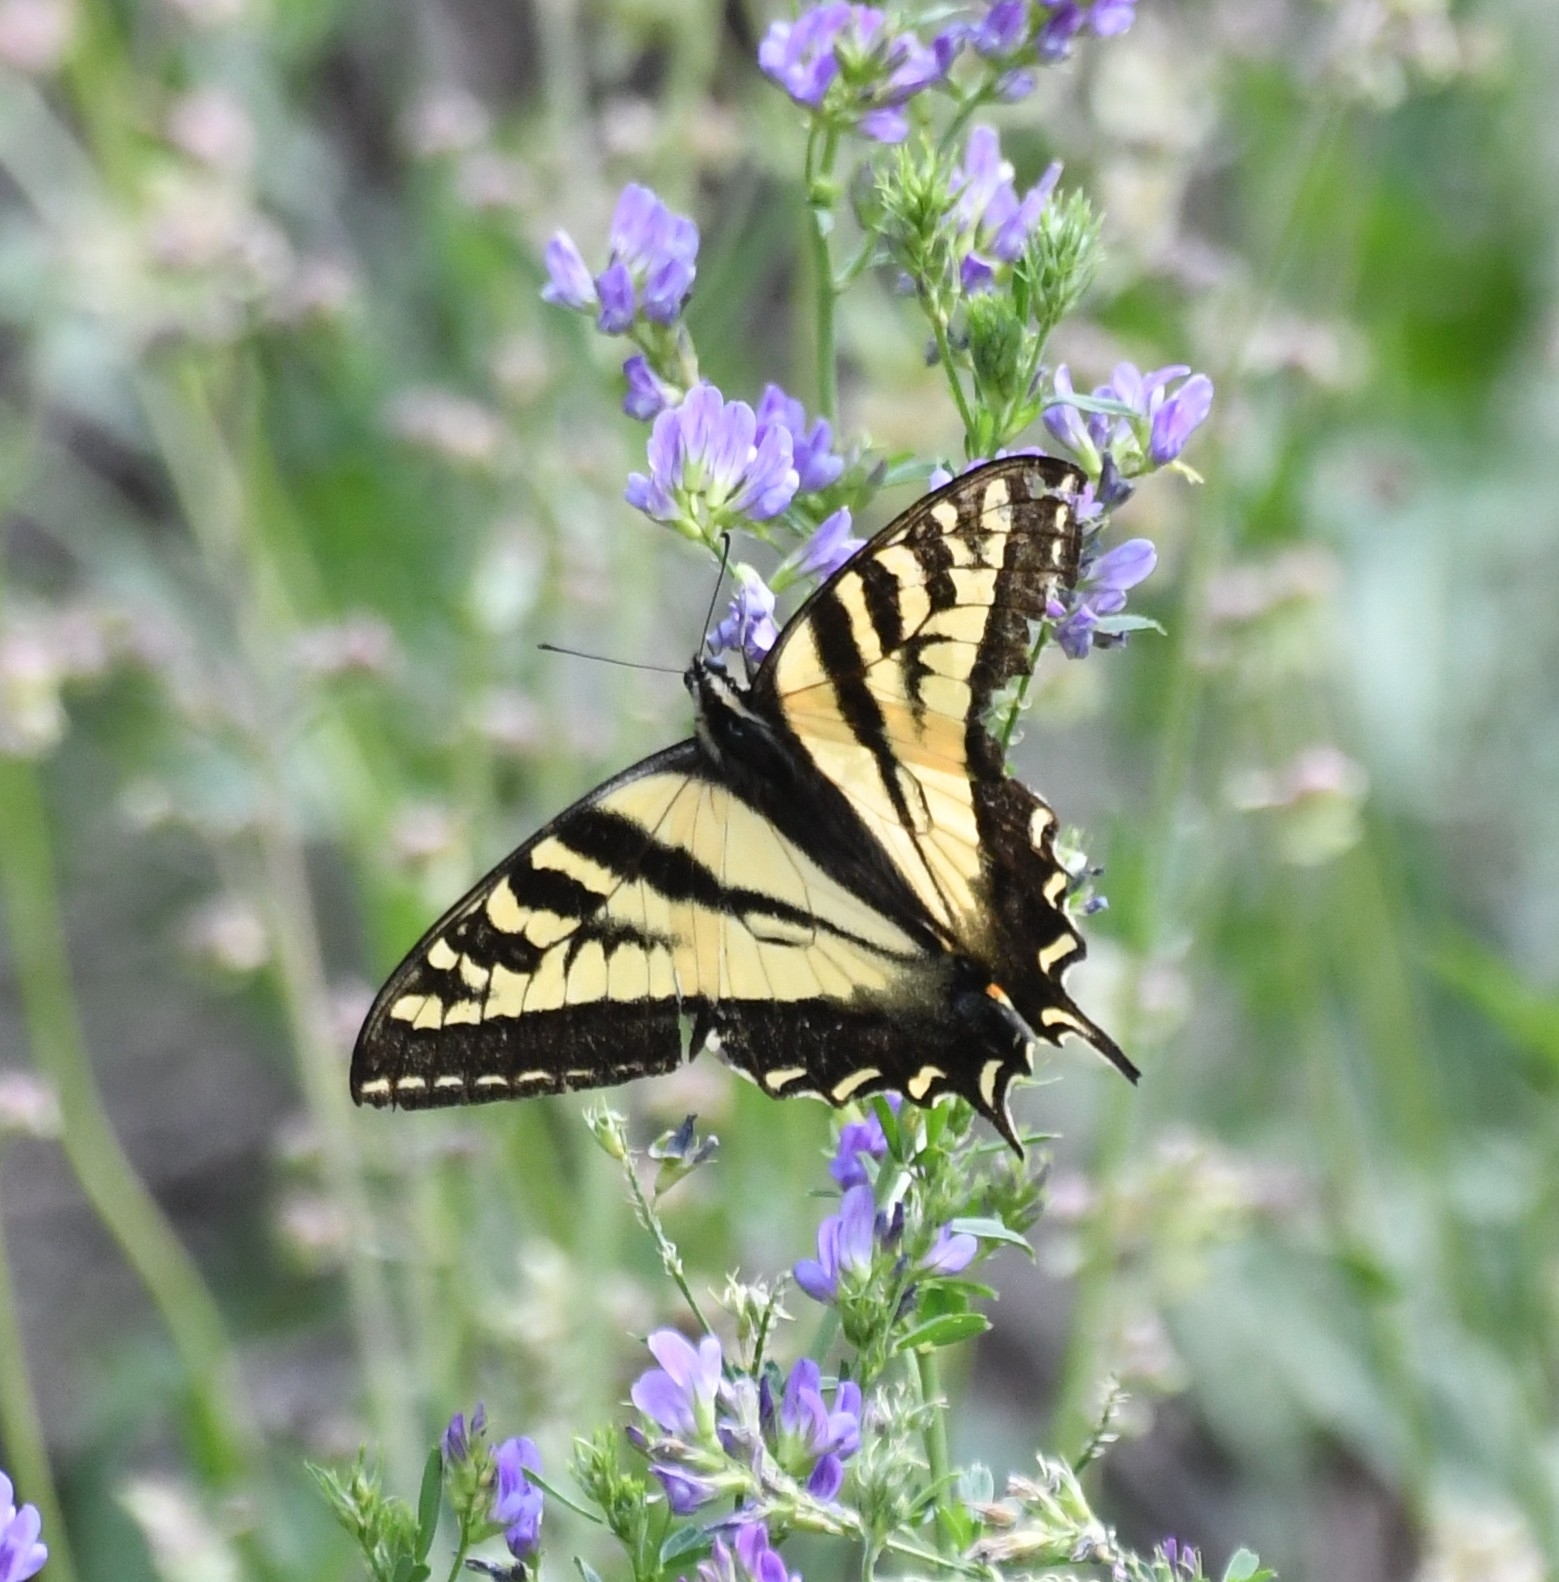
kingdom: Animalia
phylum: Arthropoda
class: Insecta
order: Lepidoptera
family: Papilionidae
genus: Papilio
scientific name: Papilio rutulus
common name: Western tiger swallowtail
